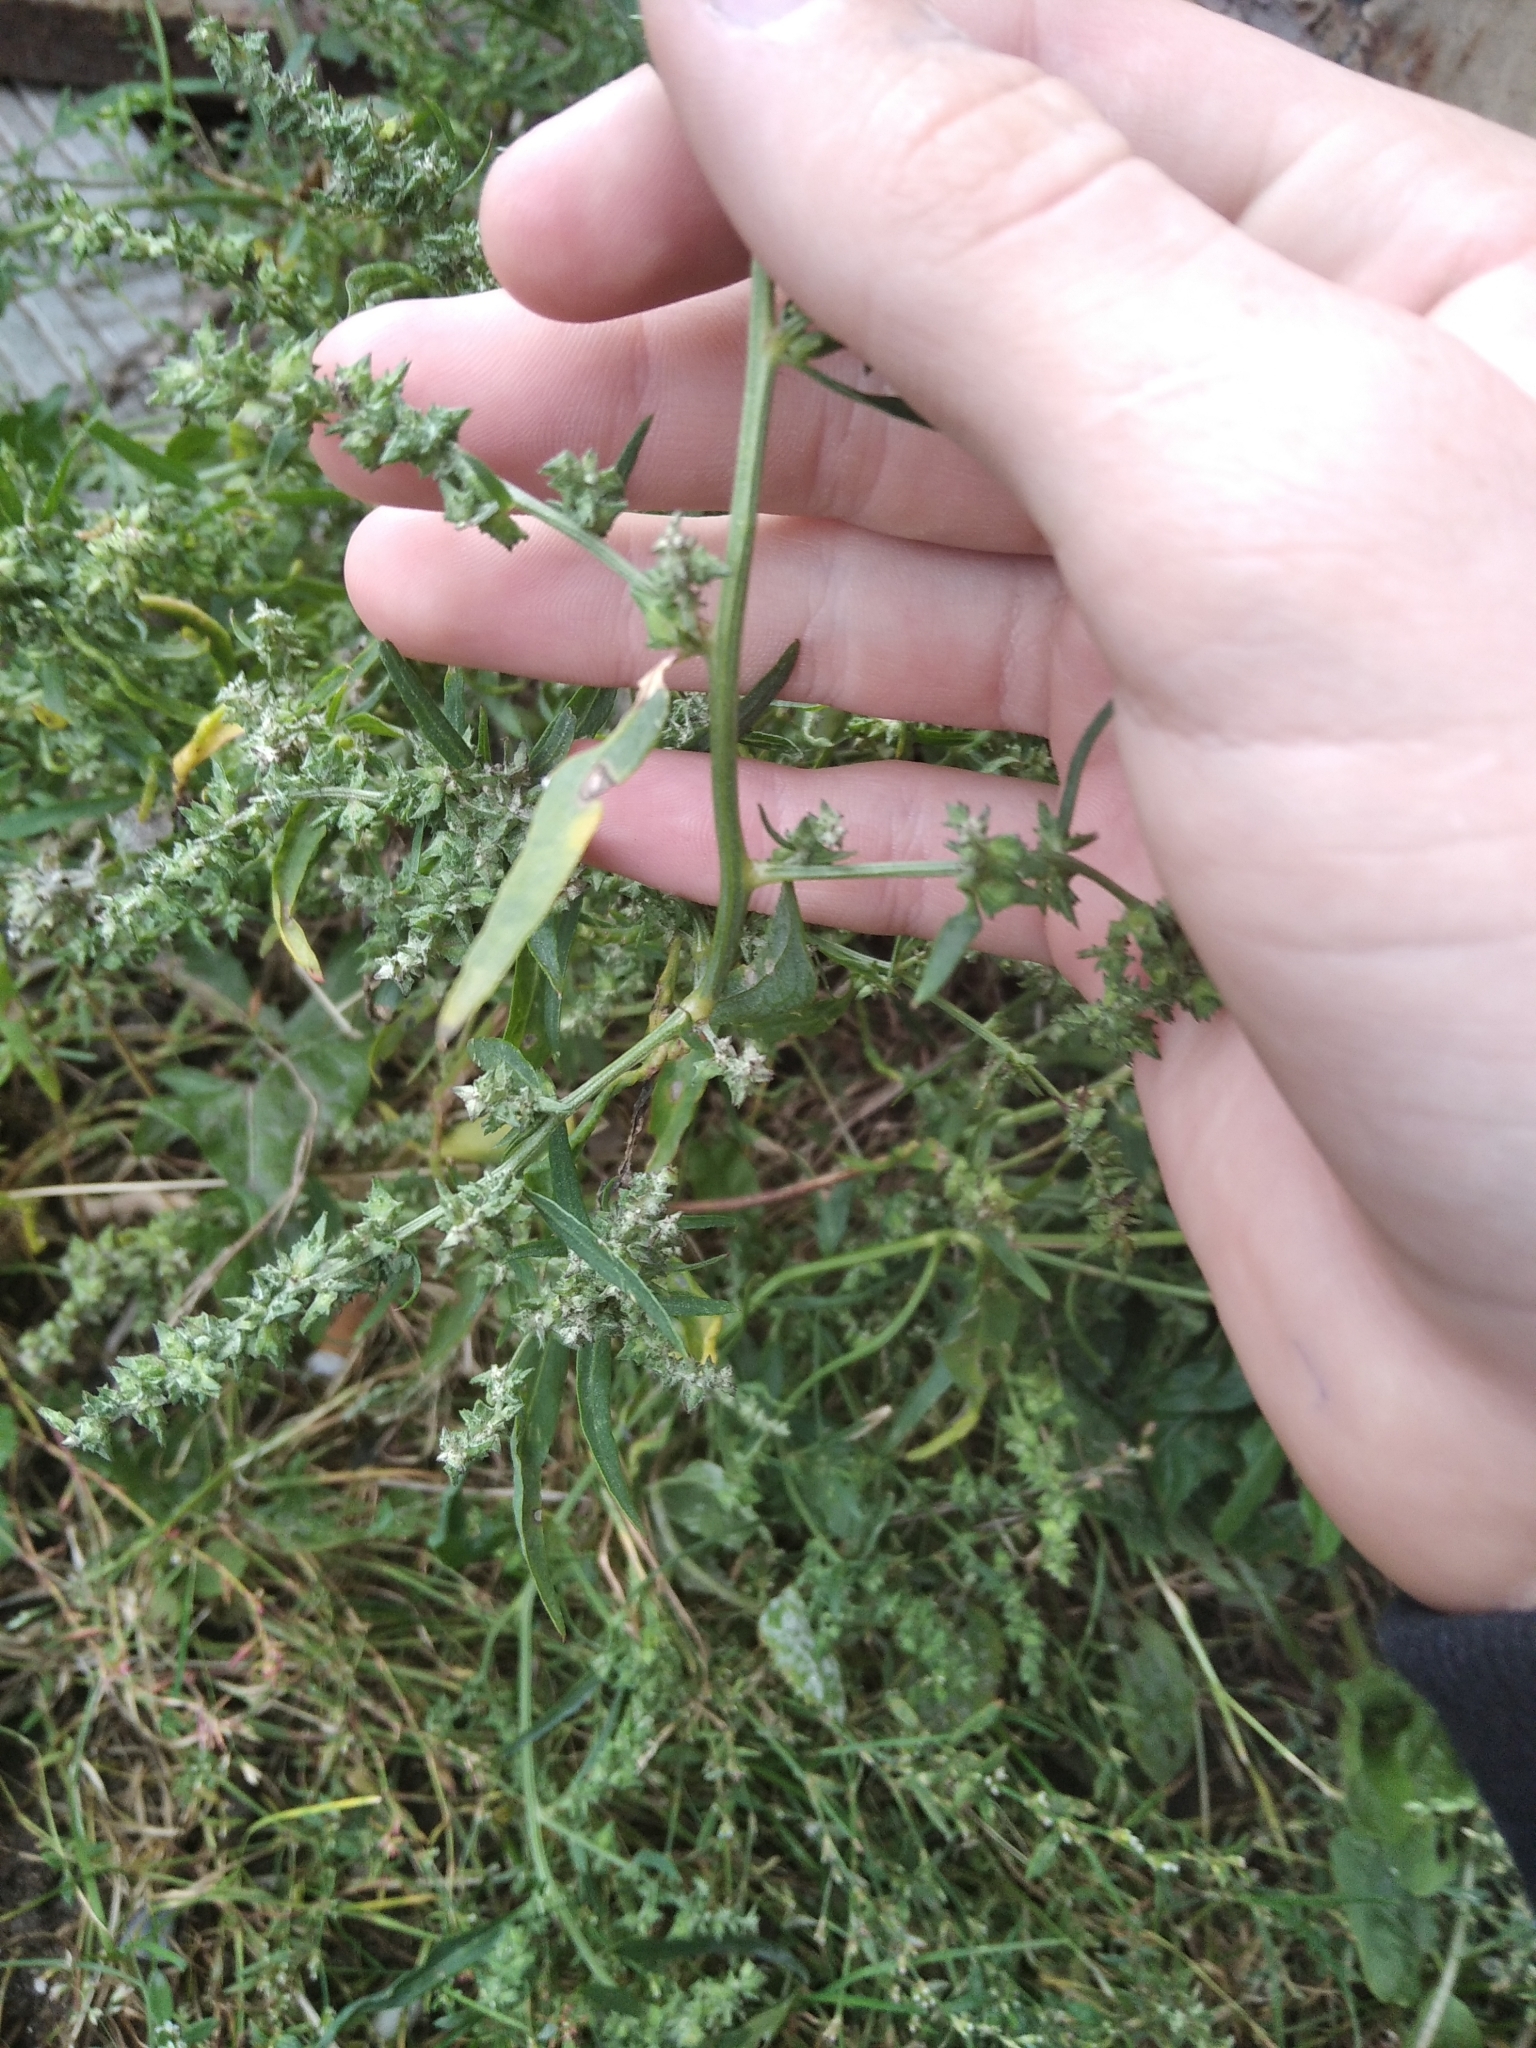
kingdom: Plantae
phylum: Tracheophyta
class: Magnoliopsida
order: Caryophyllales
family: Amaranthaceae
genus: Atriplex
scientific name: Atriplex patula
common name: Common orache
